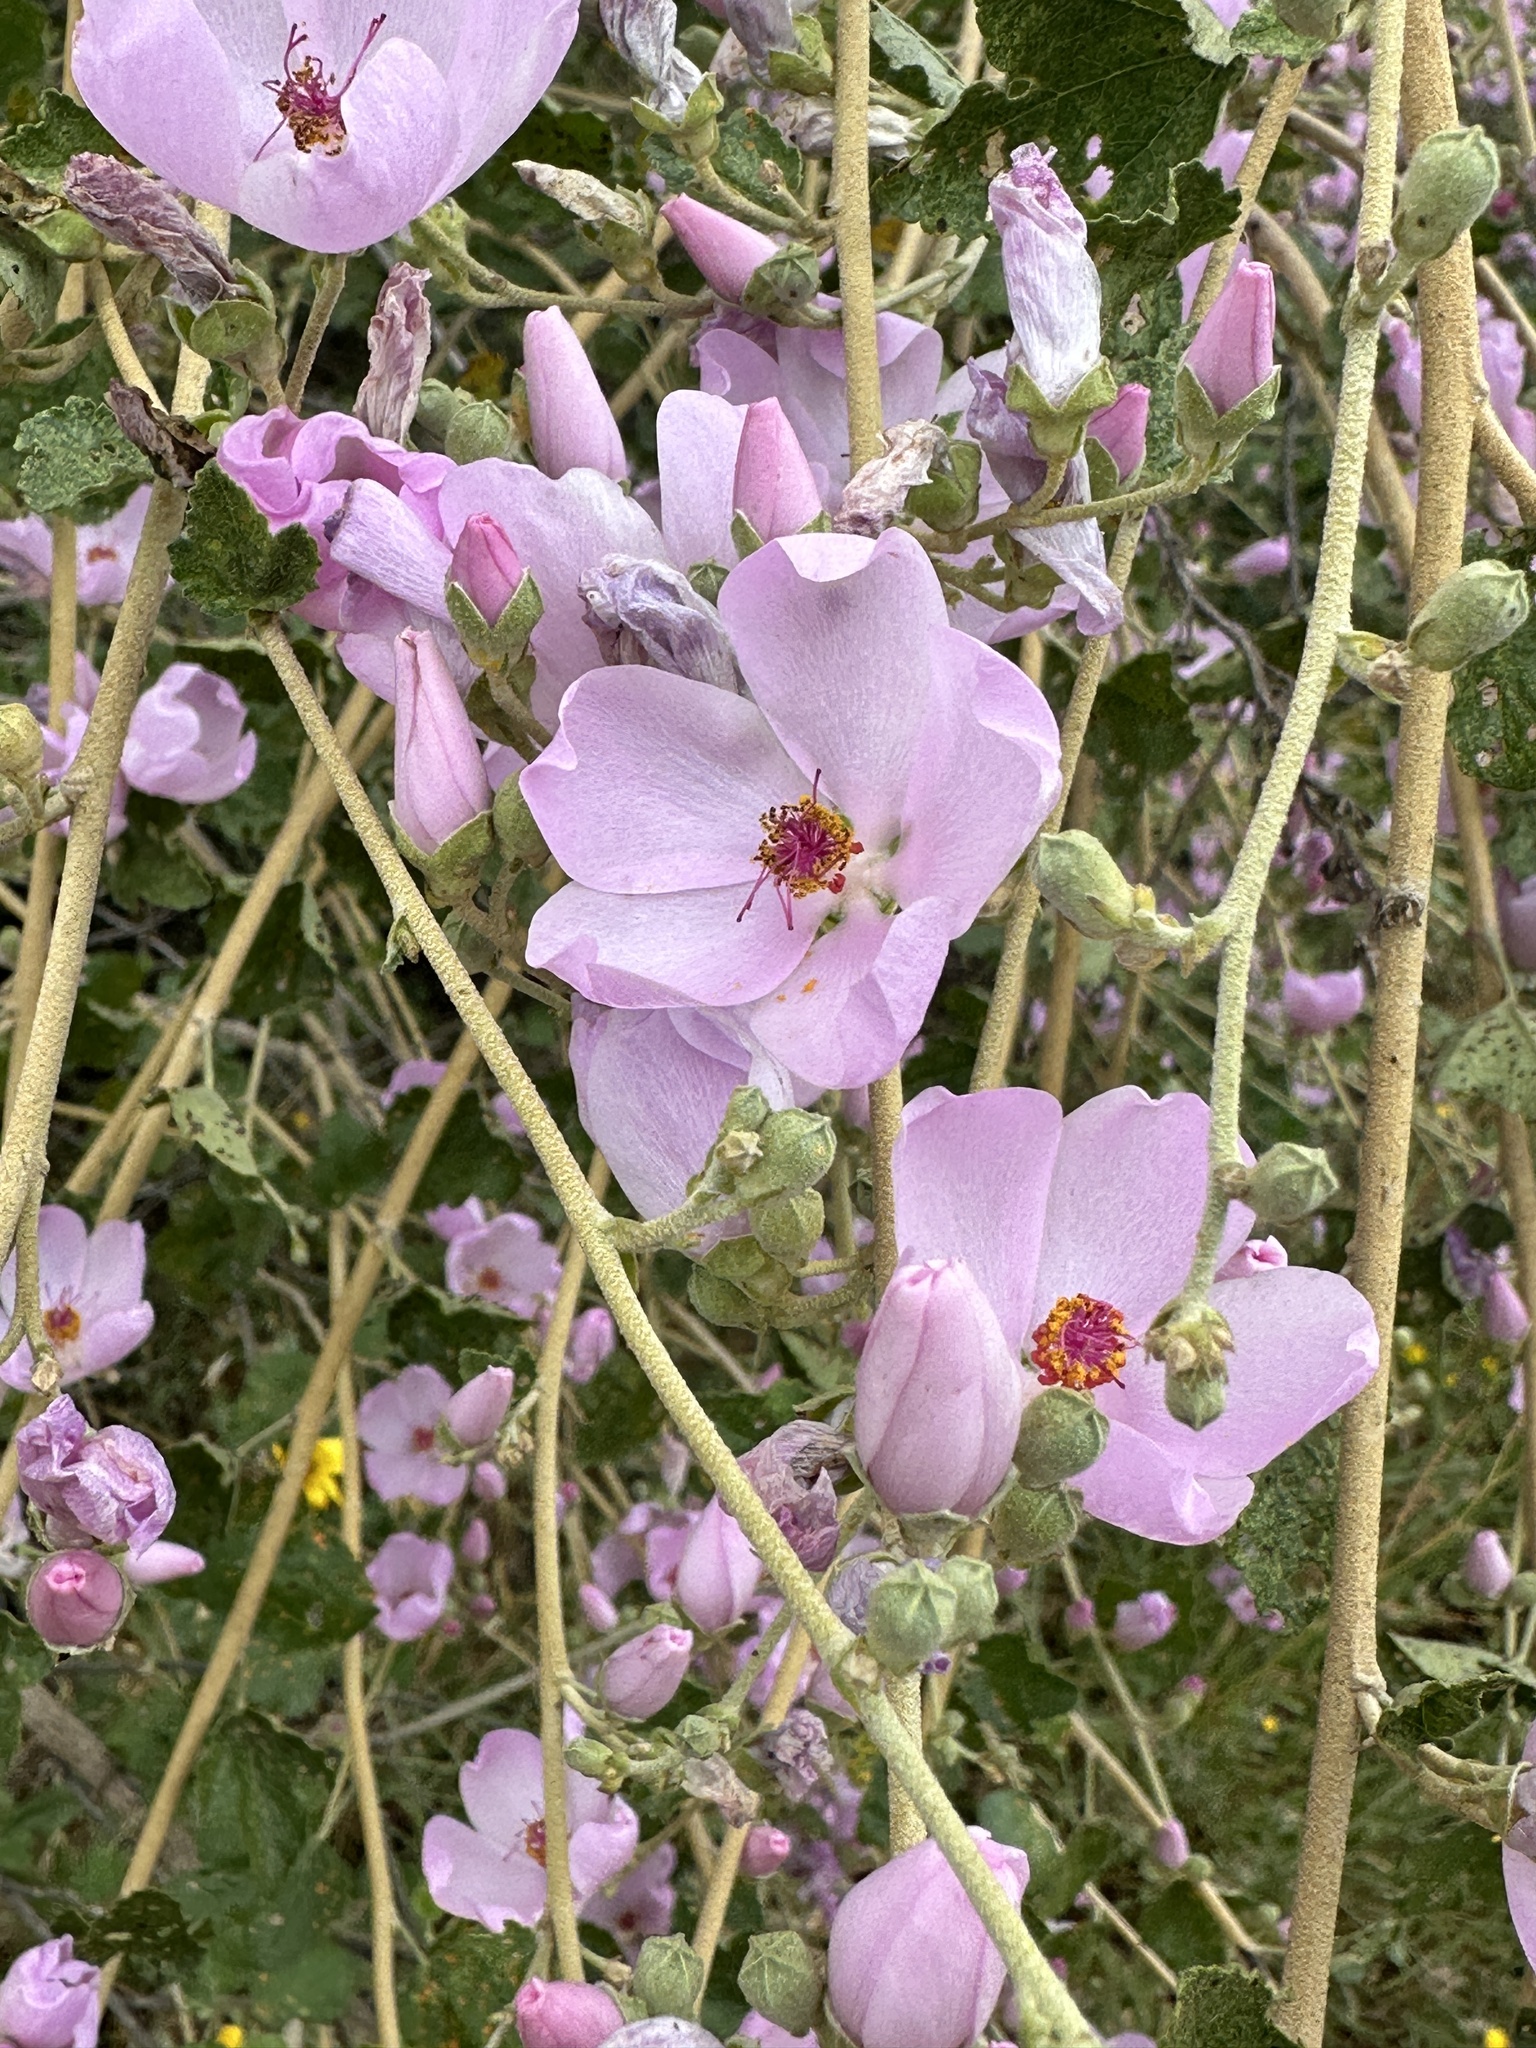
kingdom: Plantae
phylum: Tracheophyta
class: Magnoliopsida
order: Malvales
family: Malvaceae
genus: Malacothamnus
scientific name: Malacothamnus fasciculatus
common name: Sant cruz island bush-mallow
